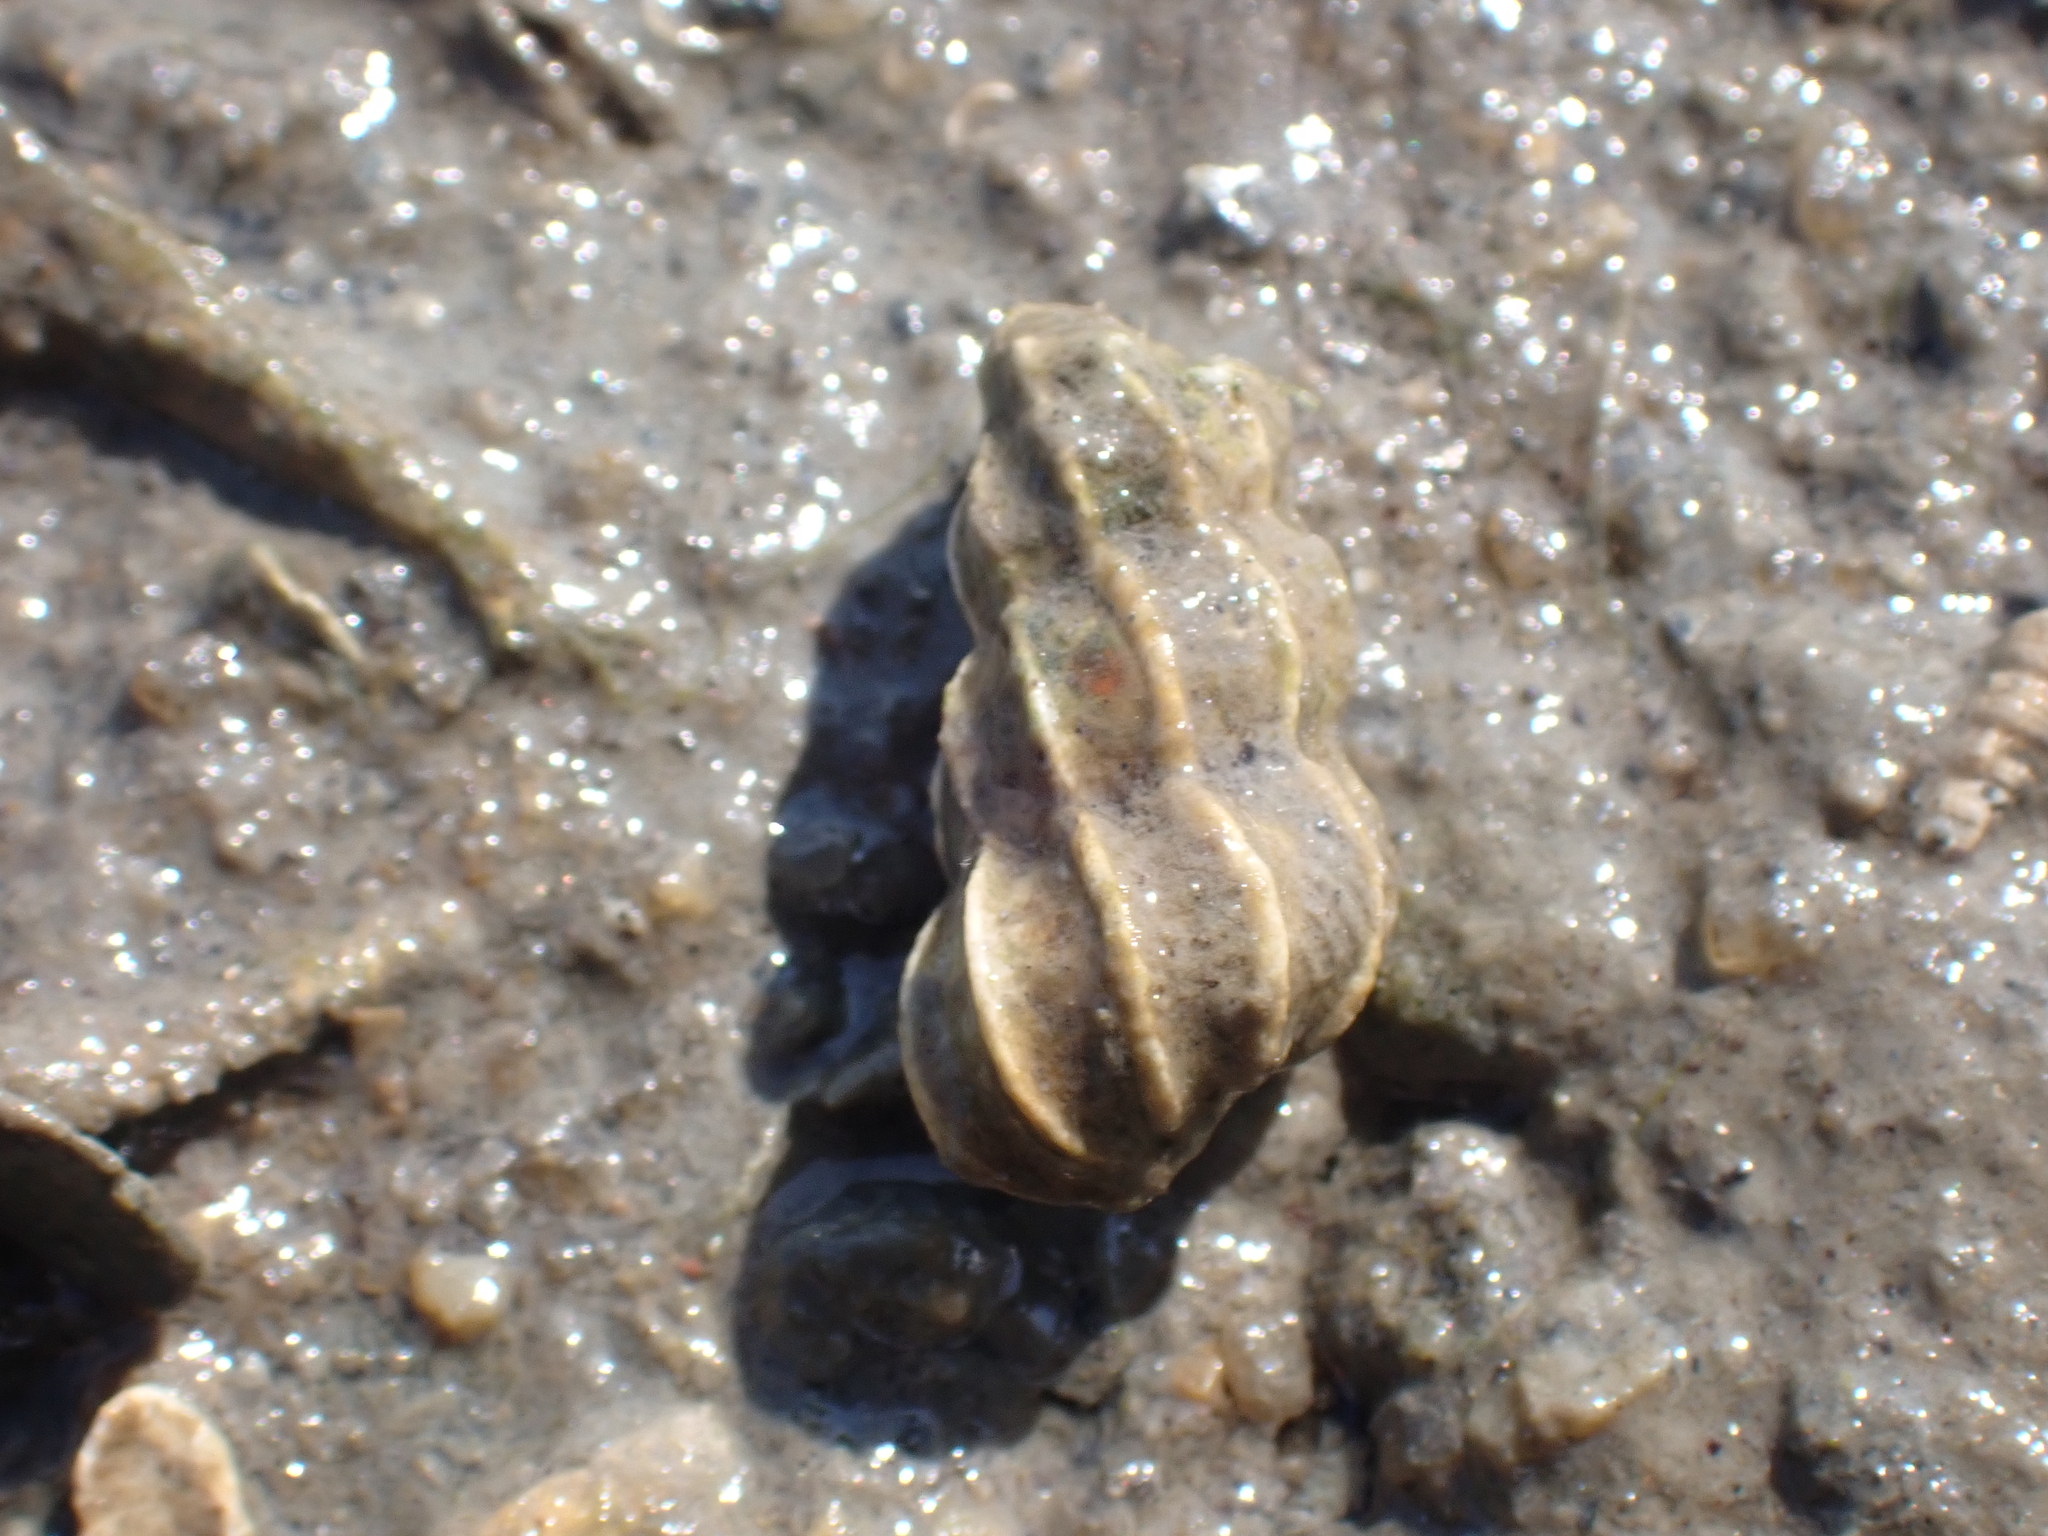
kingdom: Animalia
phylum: Mollusca
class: Gastropoda
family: Epitoniidae
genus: Epitonium
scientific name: Epitonium clathrus
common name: Common wentletrap
